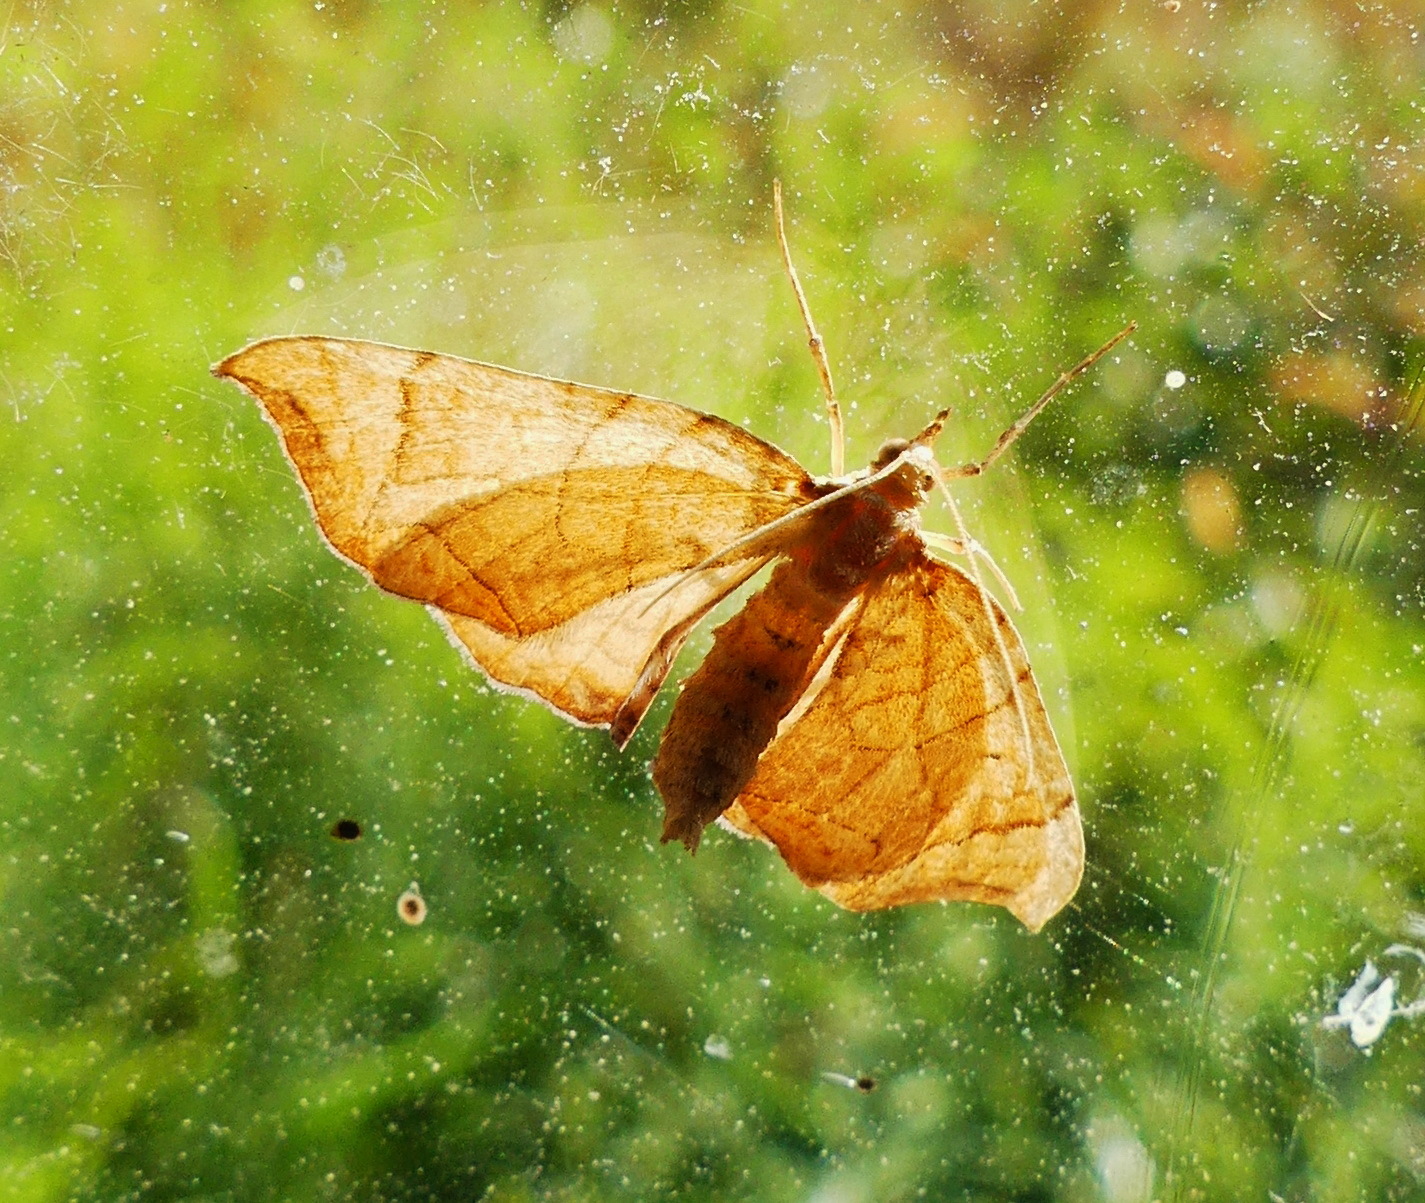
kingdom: Animalia
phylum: Arthropoda
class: Insecta
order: Lepidoptera
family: Geometridae
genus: Eulithis
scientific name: Eulithis
